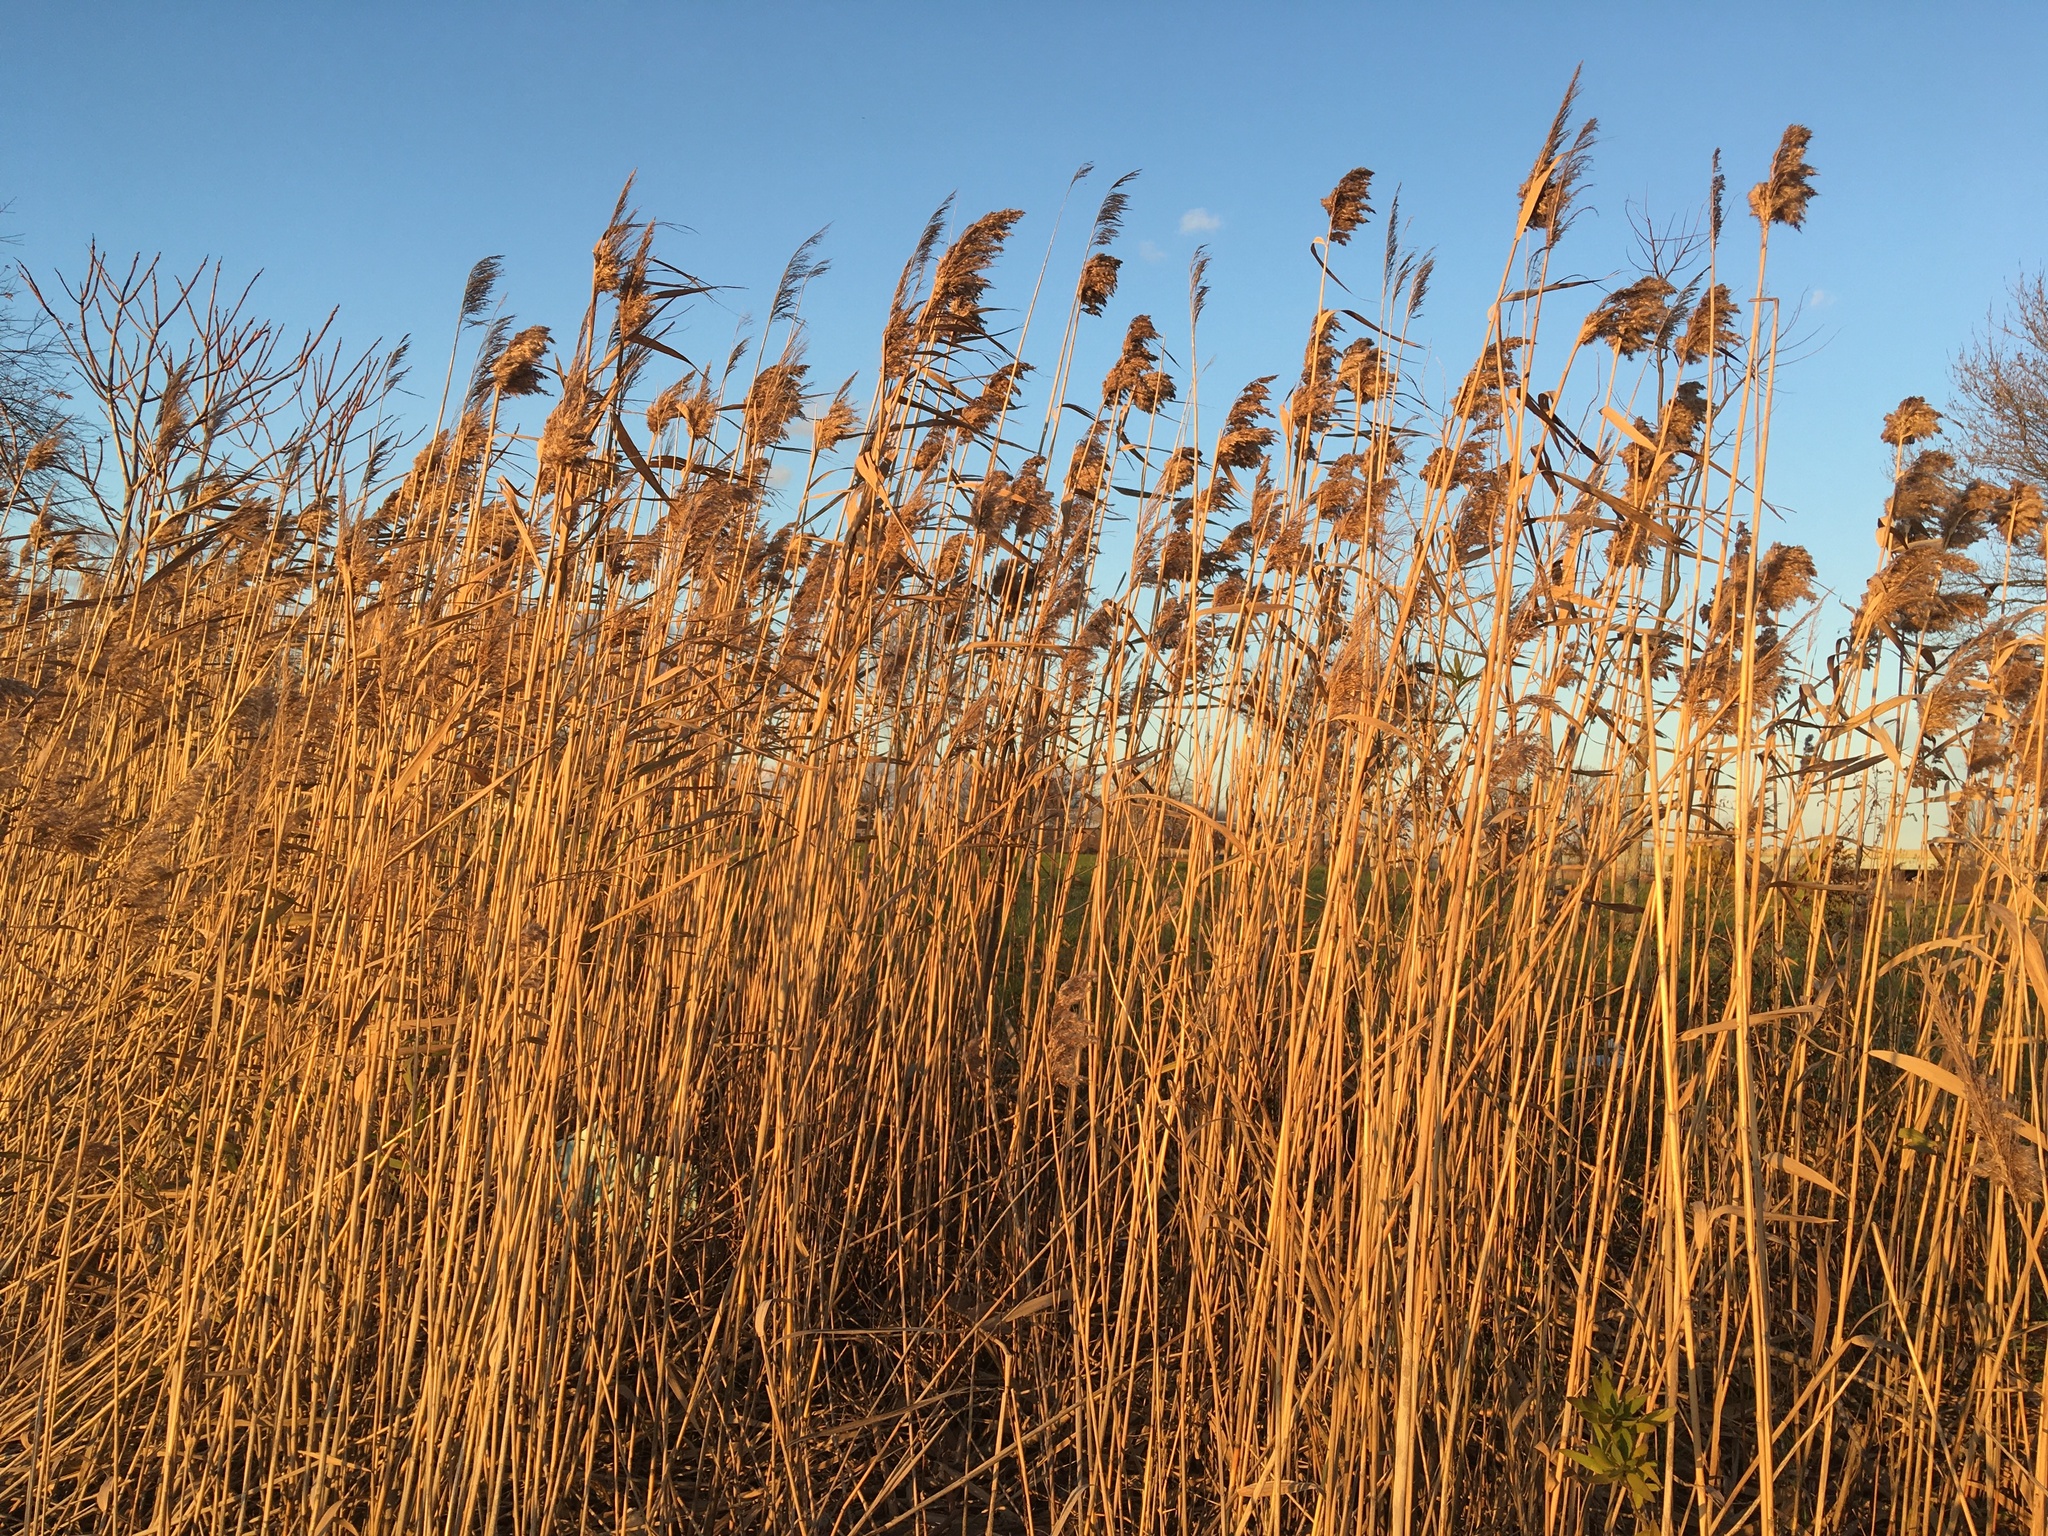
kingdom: Plantae
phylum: Tracheophyta
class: Liliopsida
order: Poales
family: Poaceae
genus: Phragmites
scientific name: Phragmites australis
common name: Common reed
